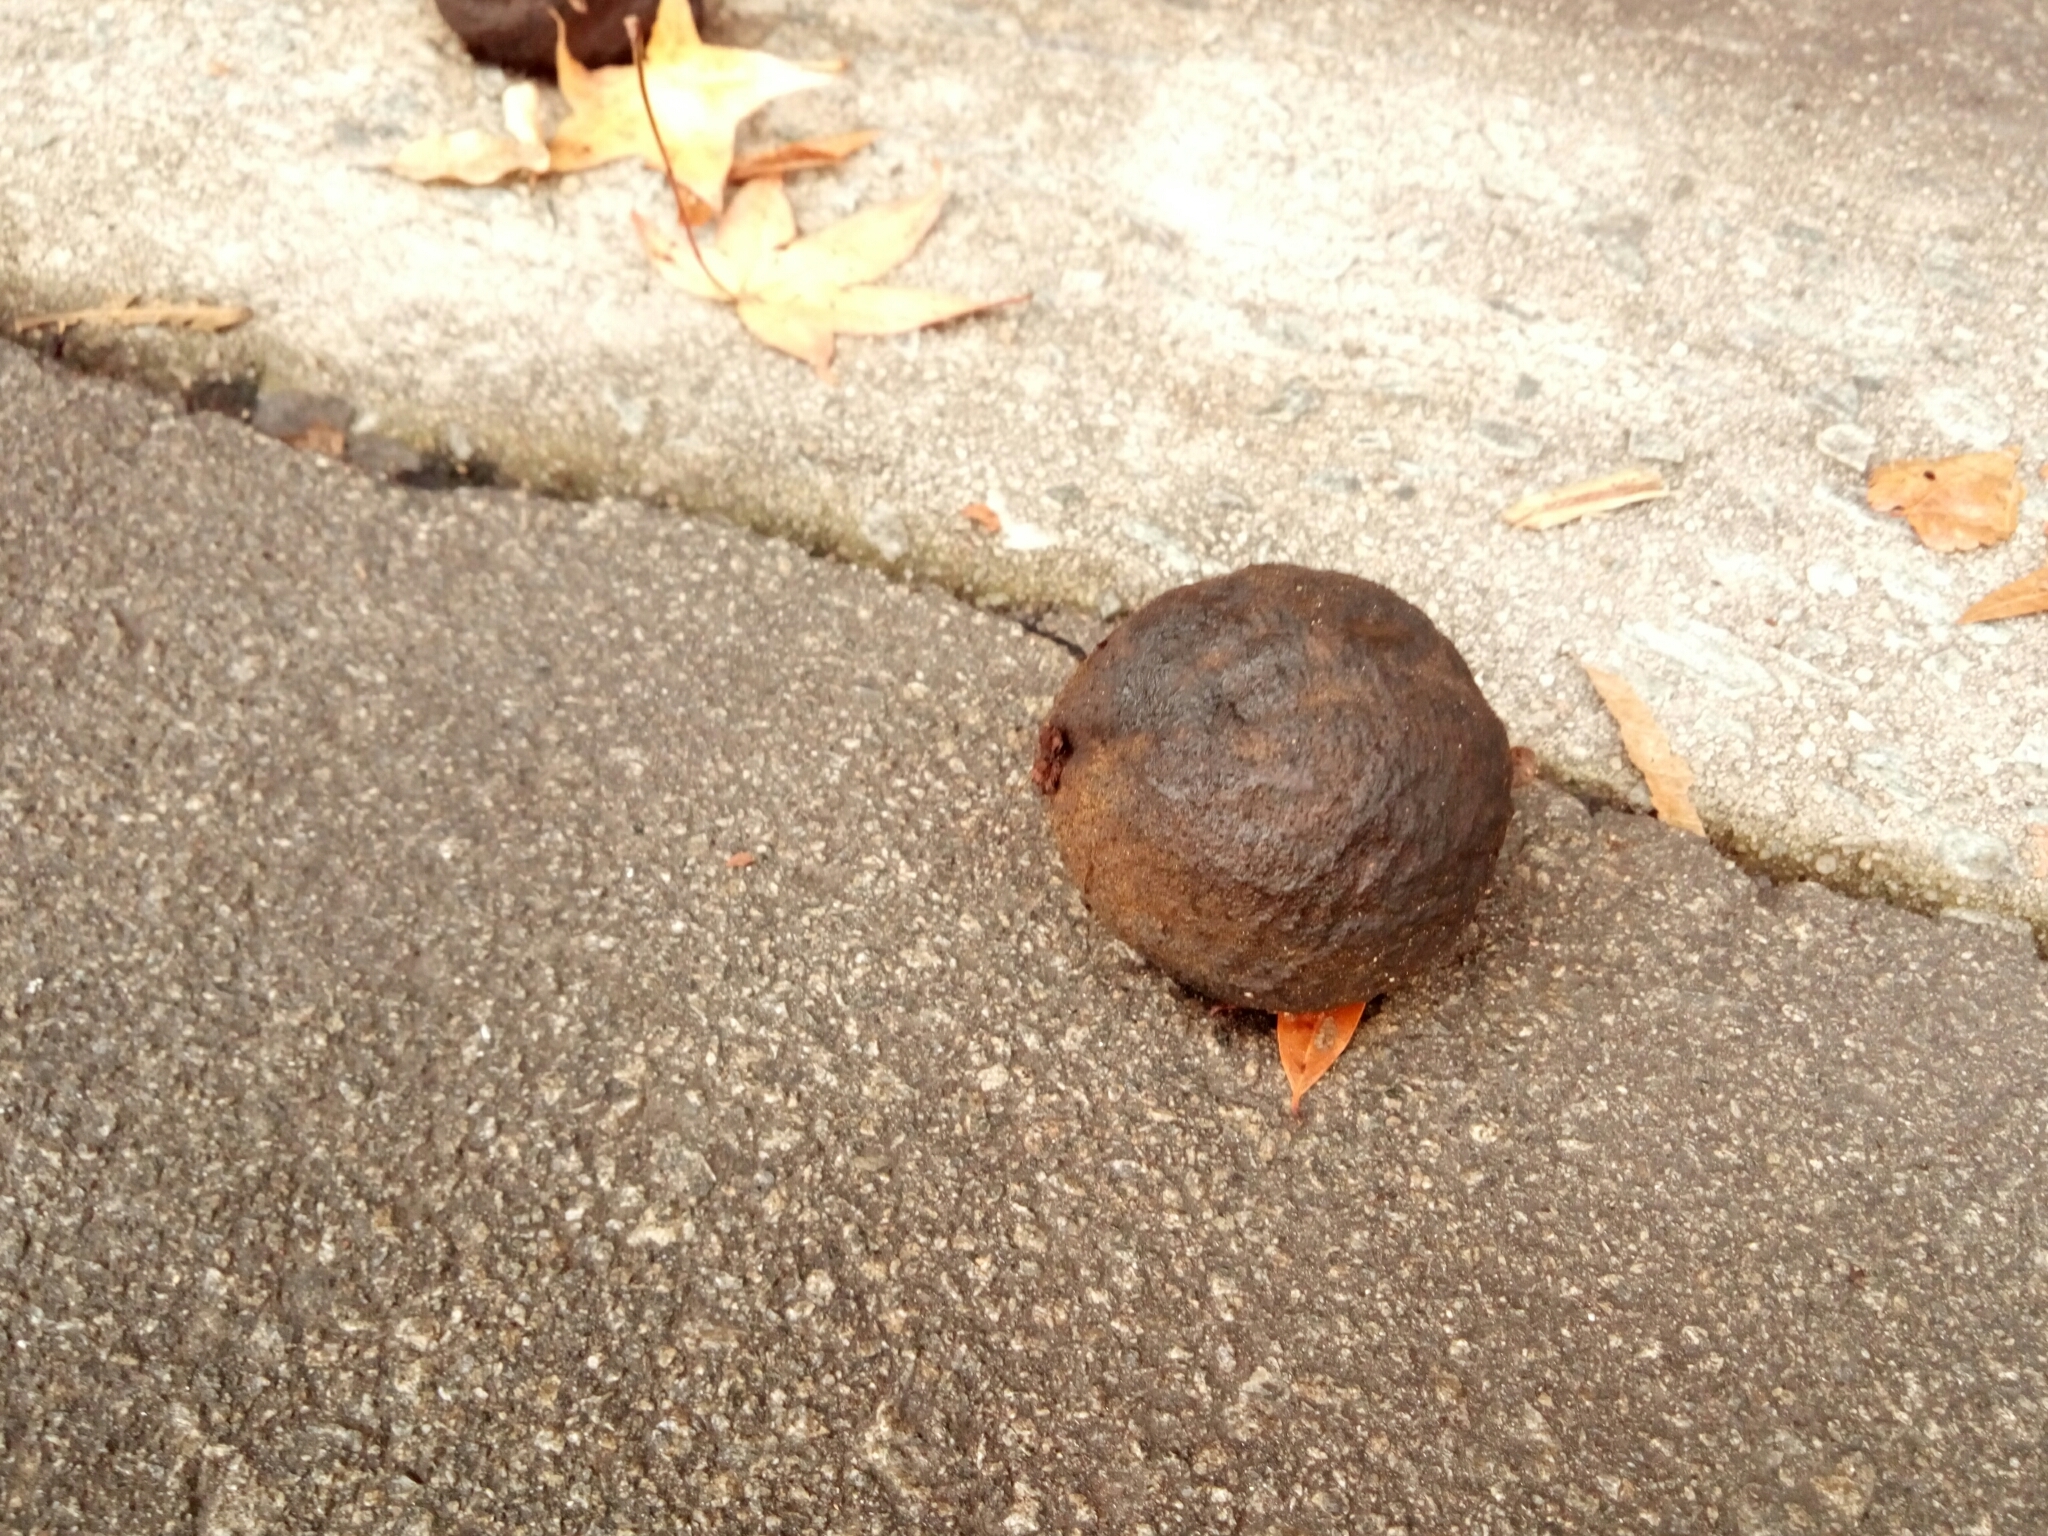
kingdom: Plantae
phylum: Tracheophyta
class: Magnoliopsida
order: Fagales
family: Juglandaceae
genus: Juglans
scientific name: Juglans nigra
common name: Black walnut
